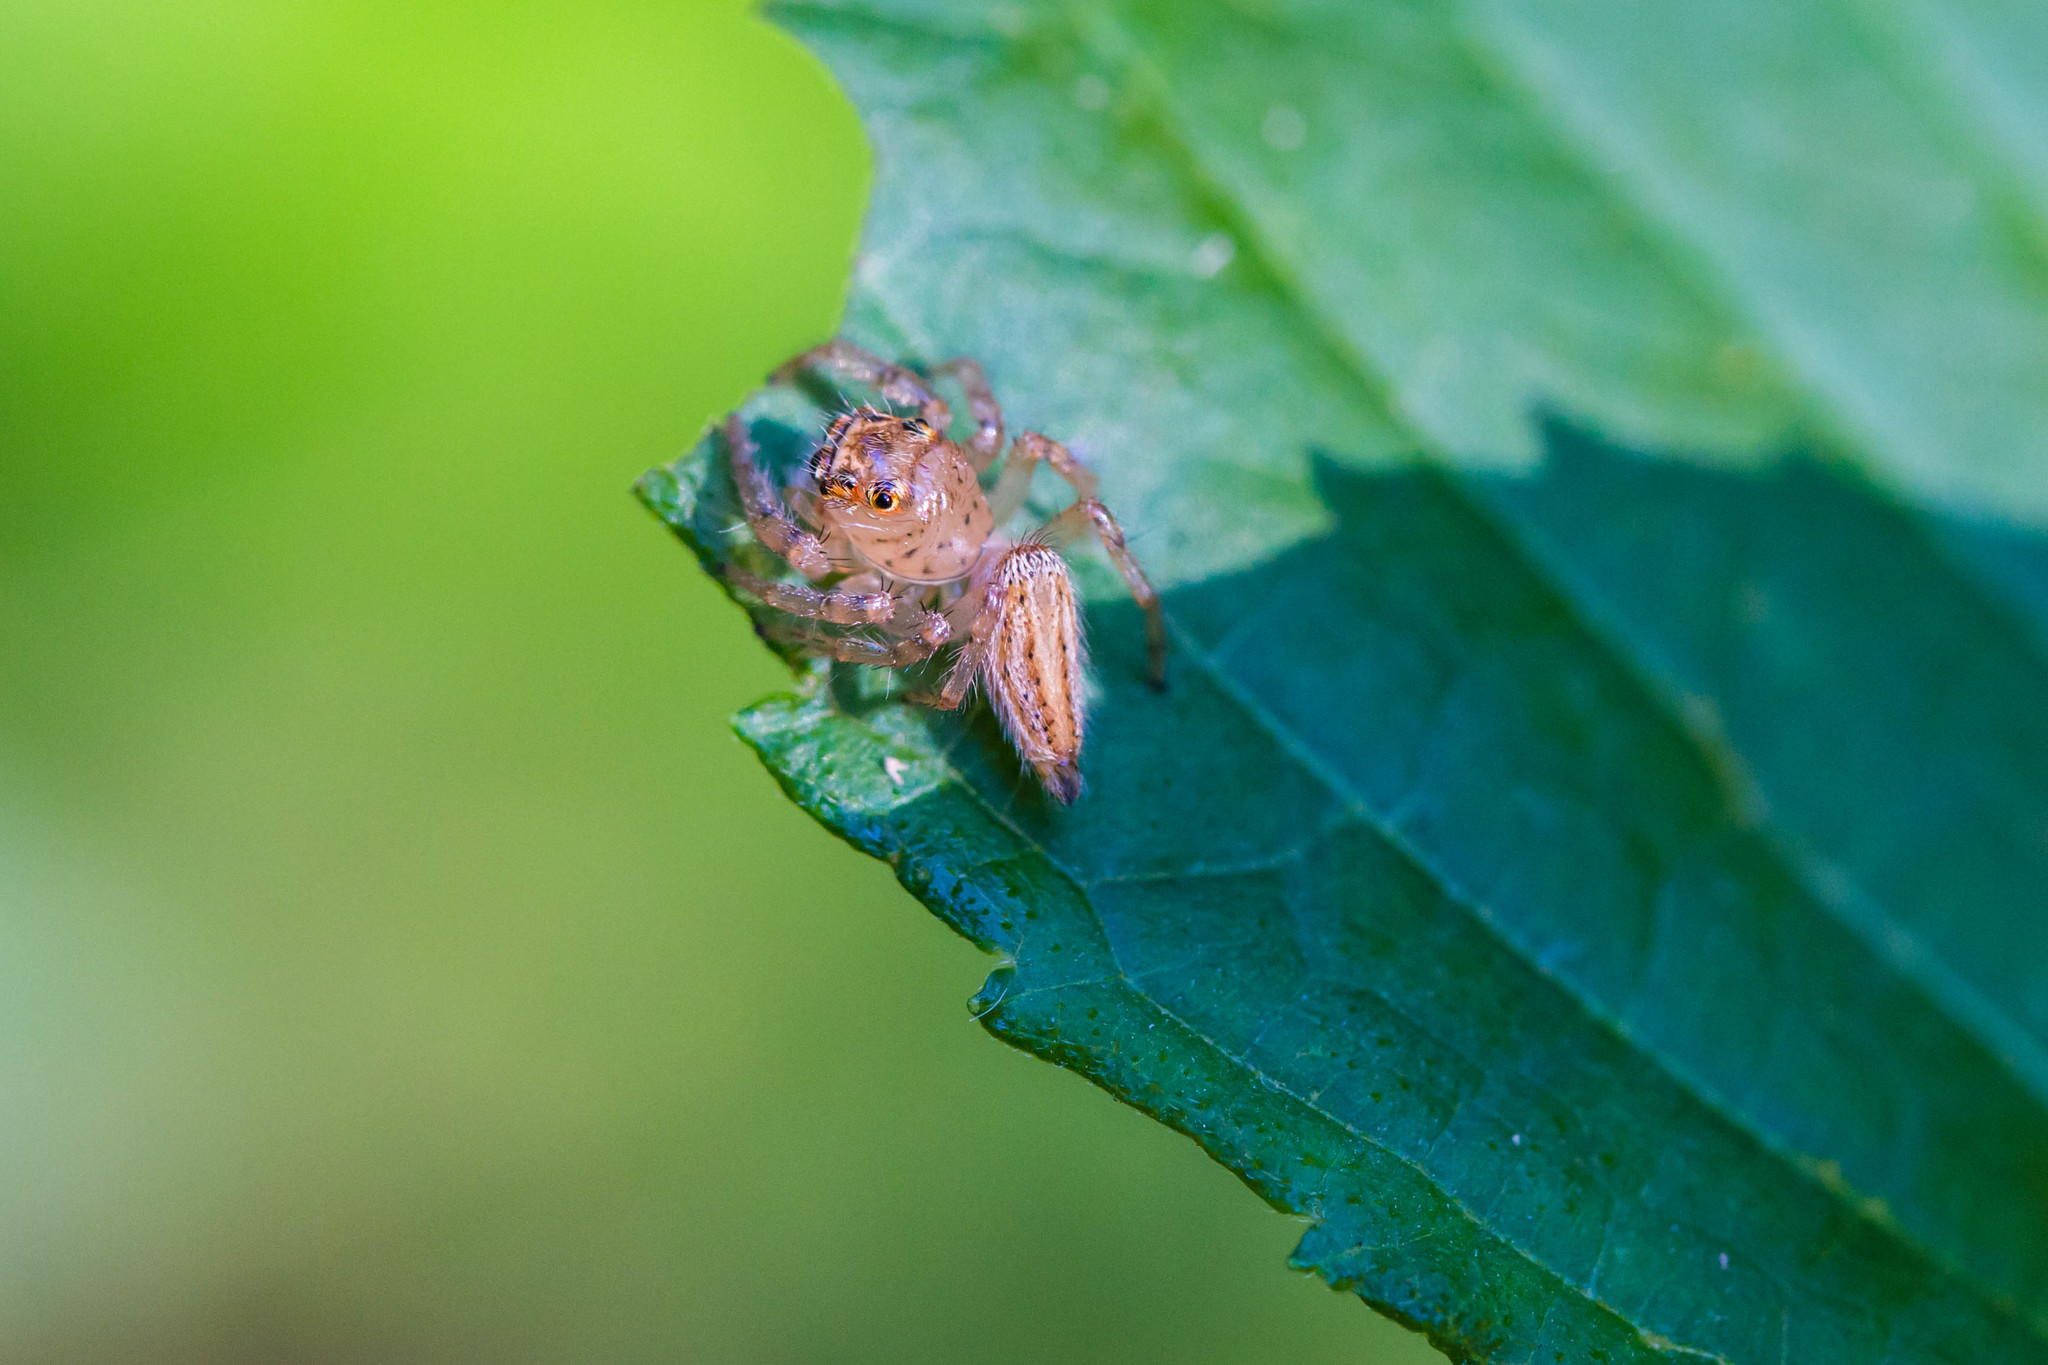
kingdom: Animalia
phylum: Arthropoda
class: Arachnida
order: Araneae
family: Salticidae
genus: Colonus
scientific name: Colonus sylvanus
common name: Jumping spiders
